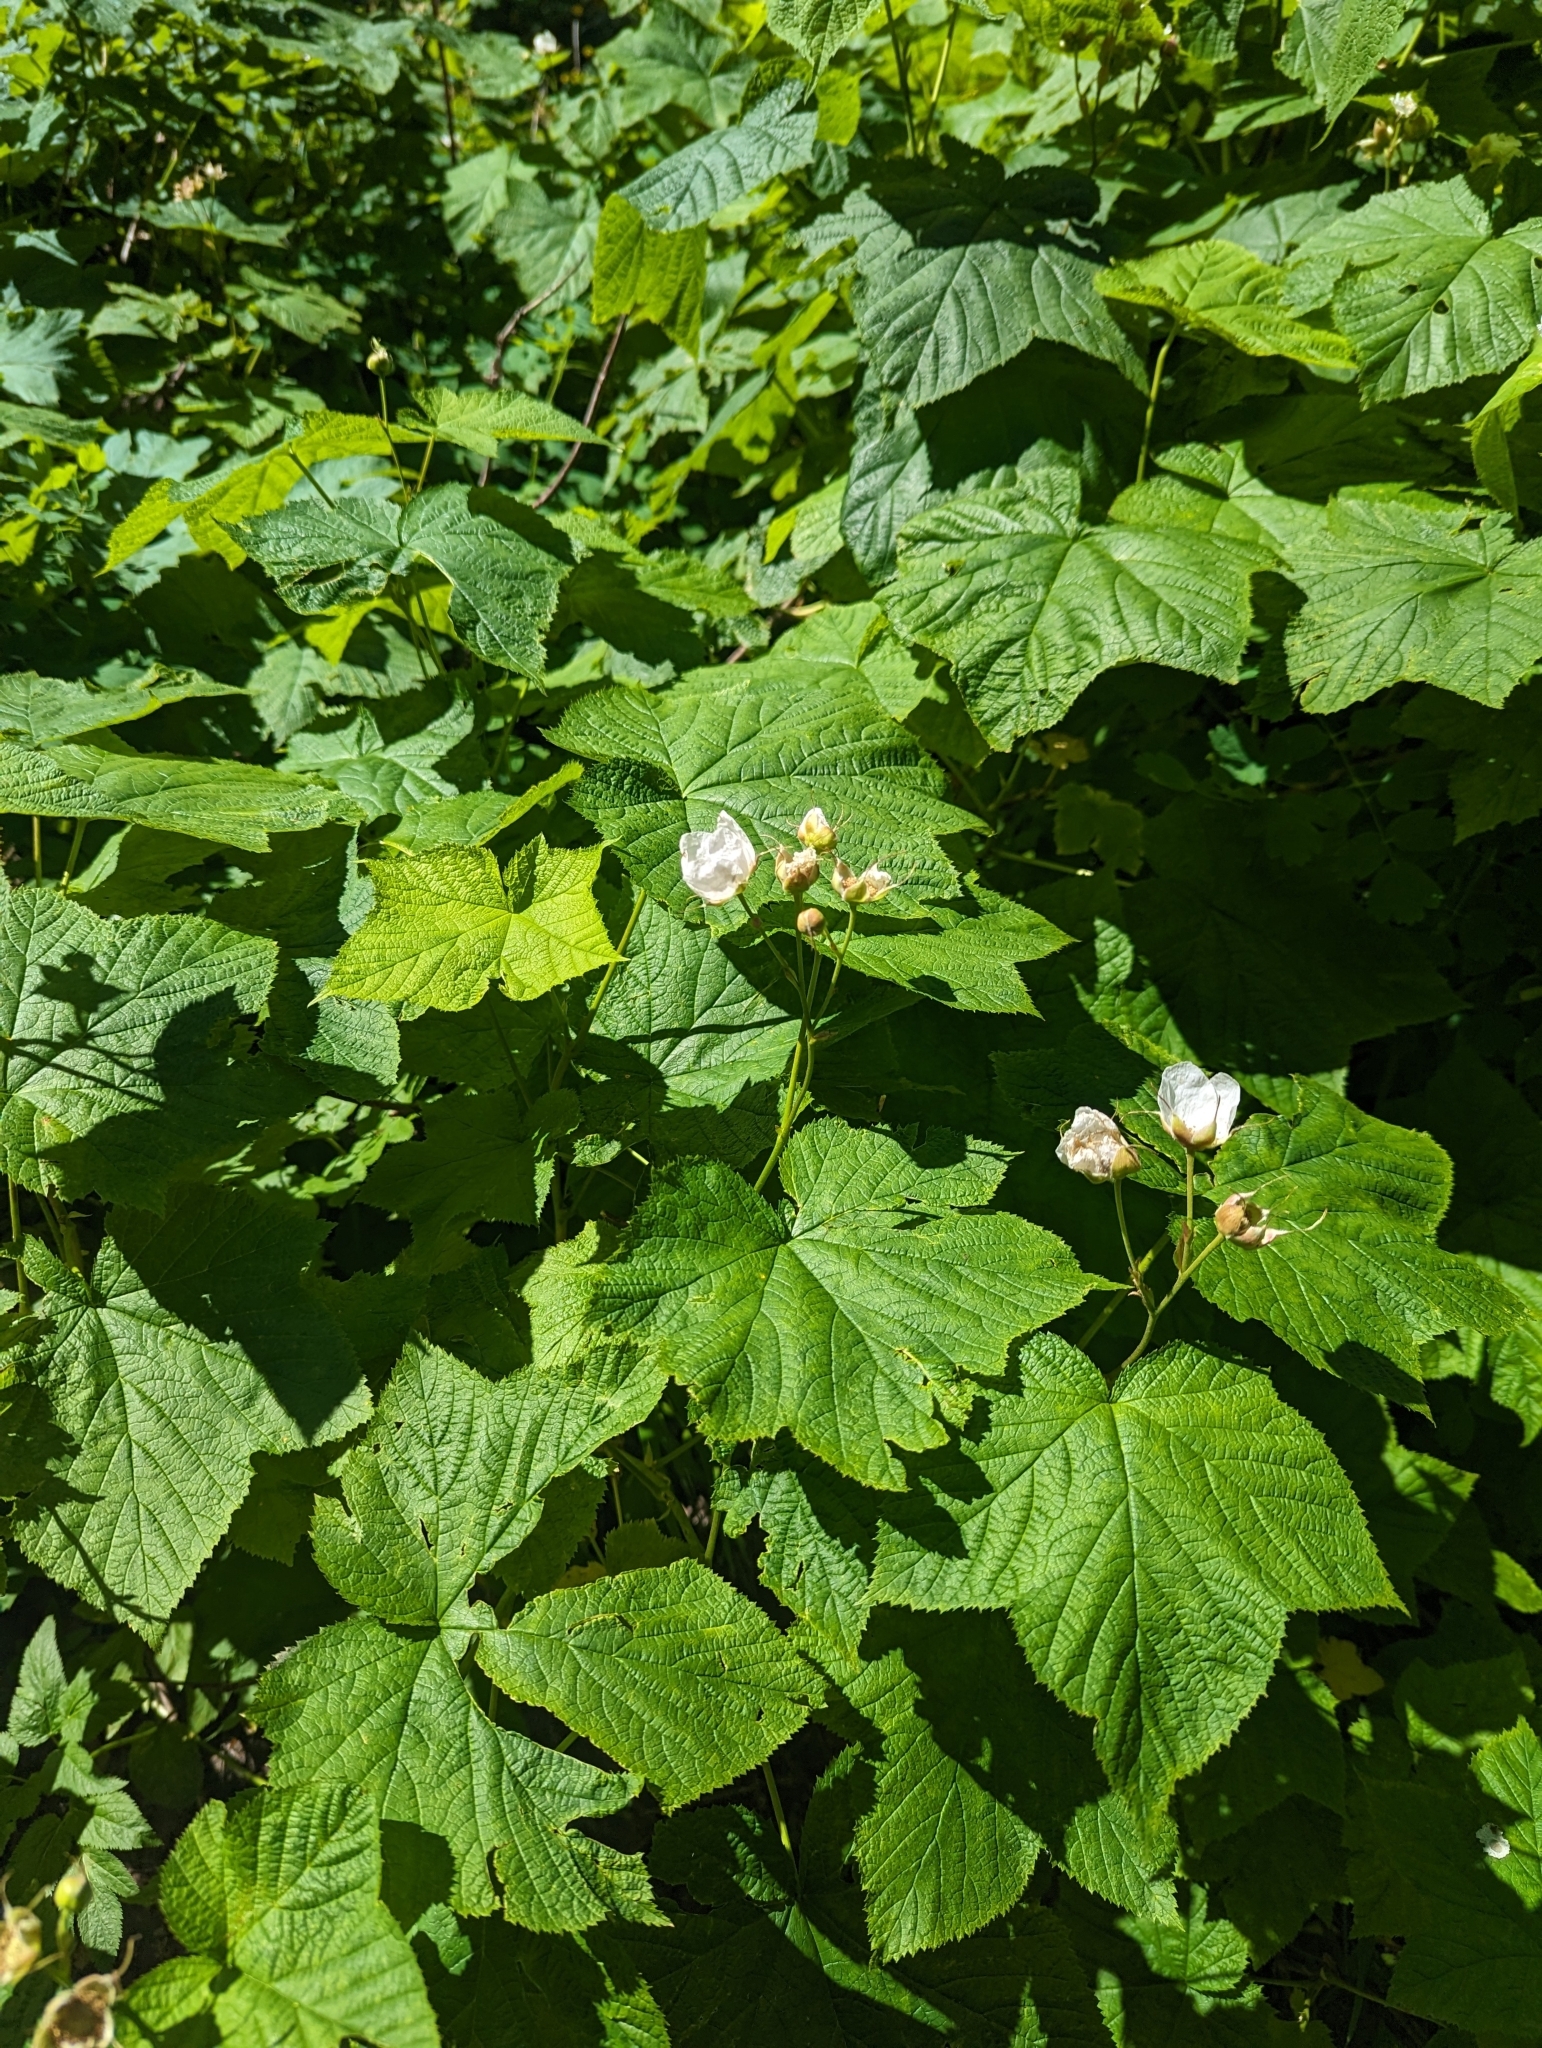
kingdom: Plantae
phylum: Tracheophyta
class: Magnoliopsida
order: Rosales
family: Rosaceae
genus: Rubus
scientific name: Rubus parviflorus
